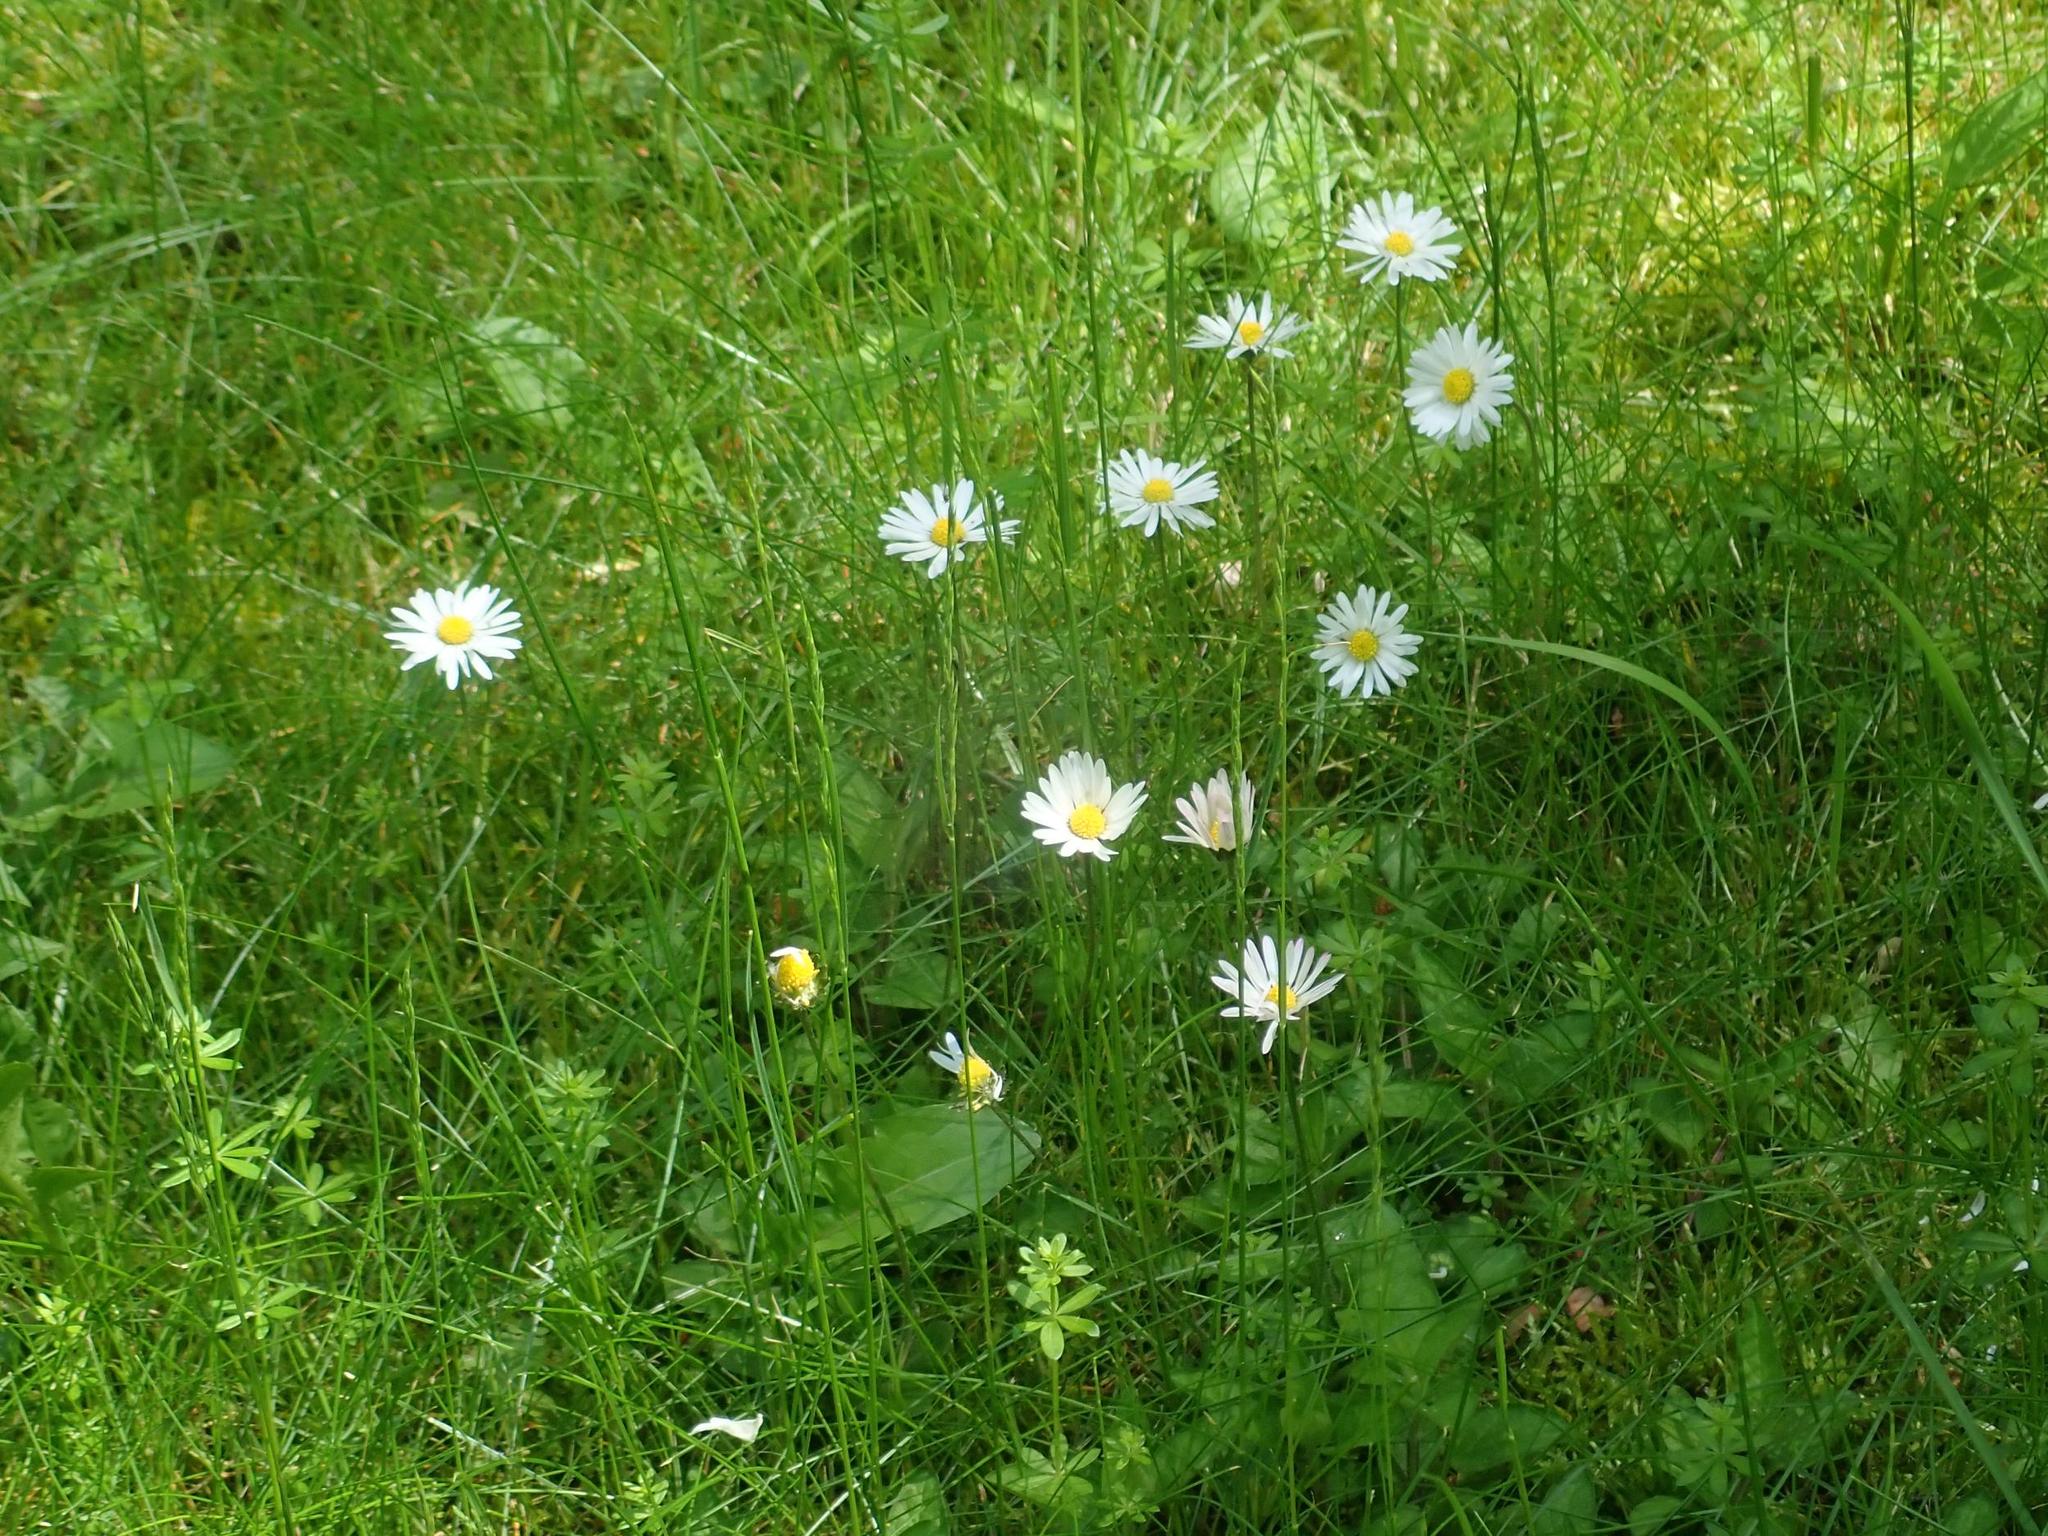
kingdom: Plantae
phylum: Tracheophyta
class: Magnoliopsida
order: Asterales
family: Asteraceae
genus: Bellis
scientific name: Bellis perennis
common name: Lawndaisy
